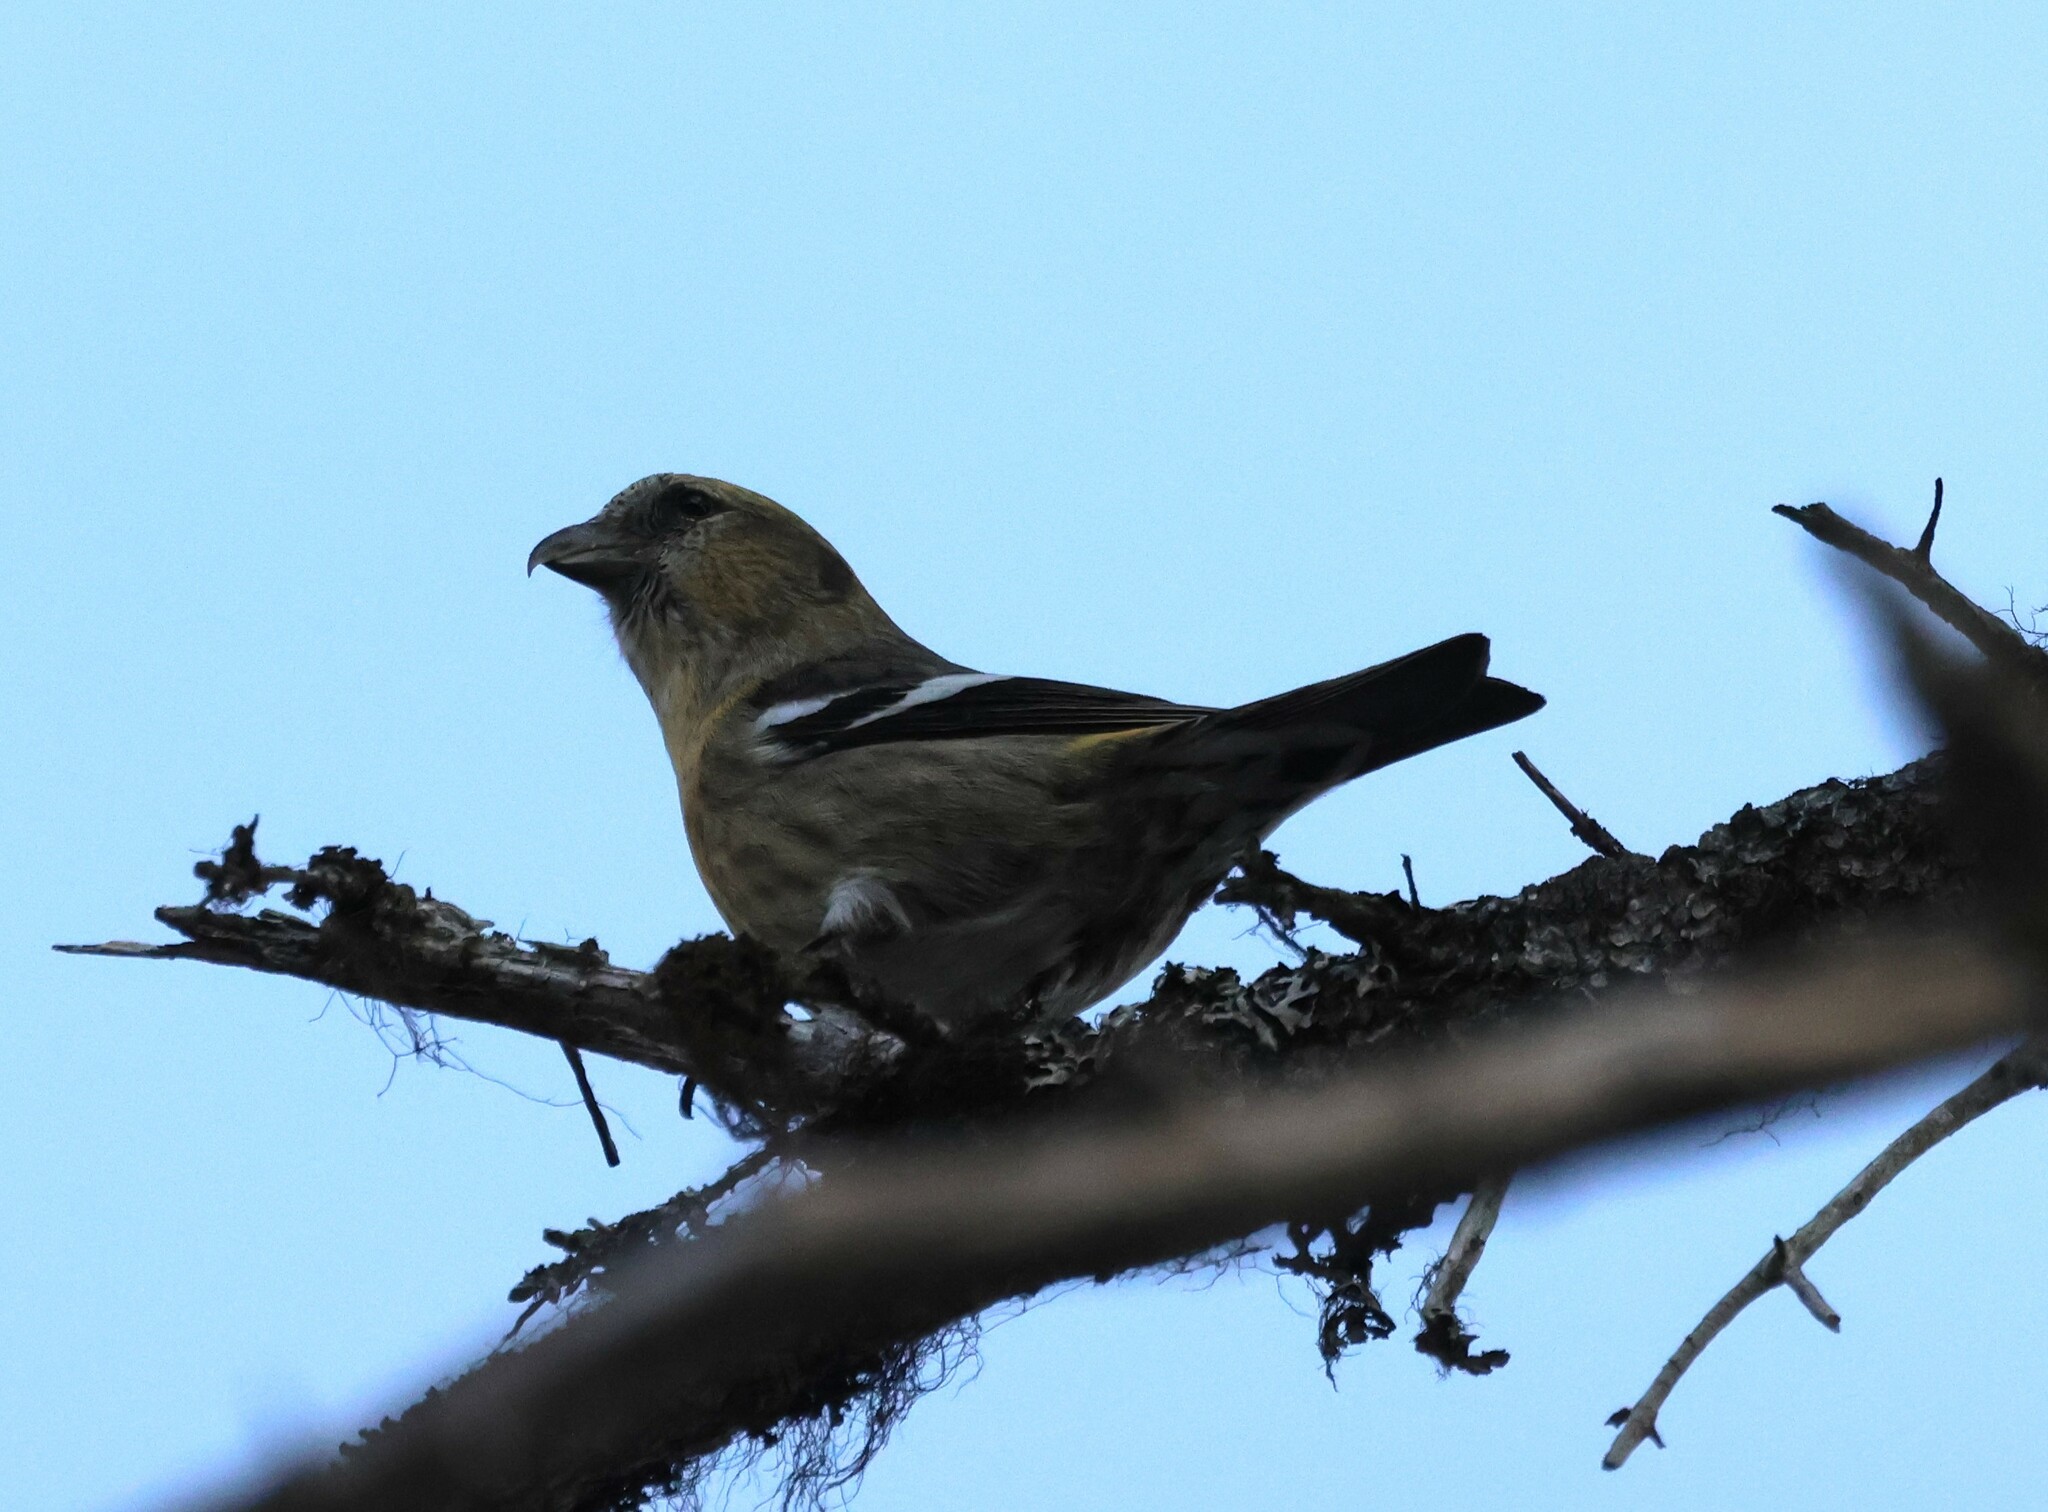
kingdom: Animalia
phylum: Chordata
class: Aves
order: Passeriformes
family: Fringillidae
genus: Loxia
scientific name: Loxia leucoptera
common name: Two-barred crossbill
